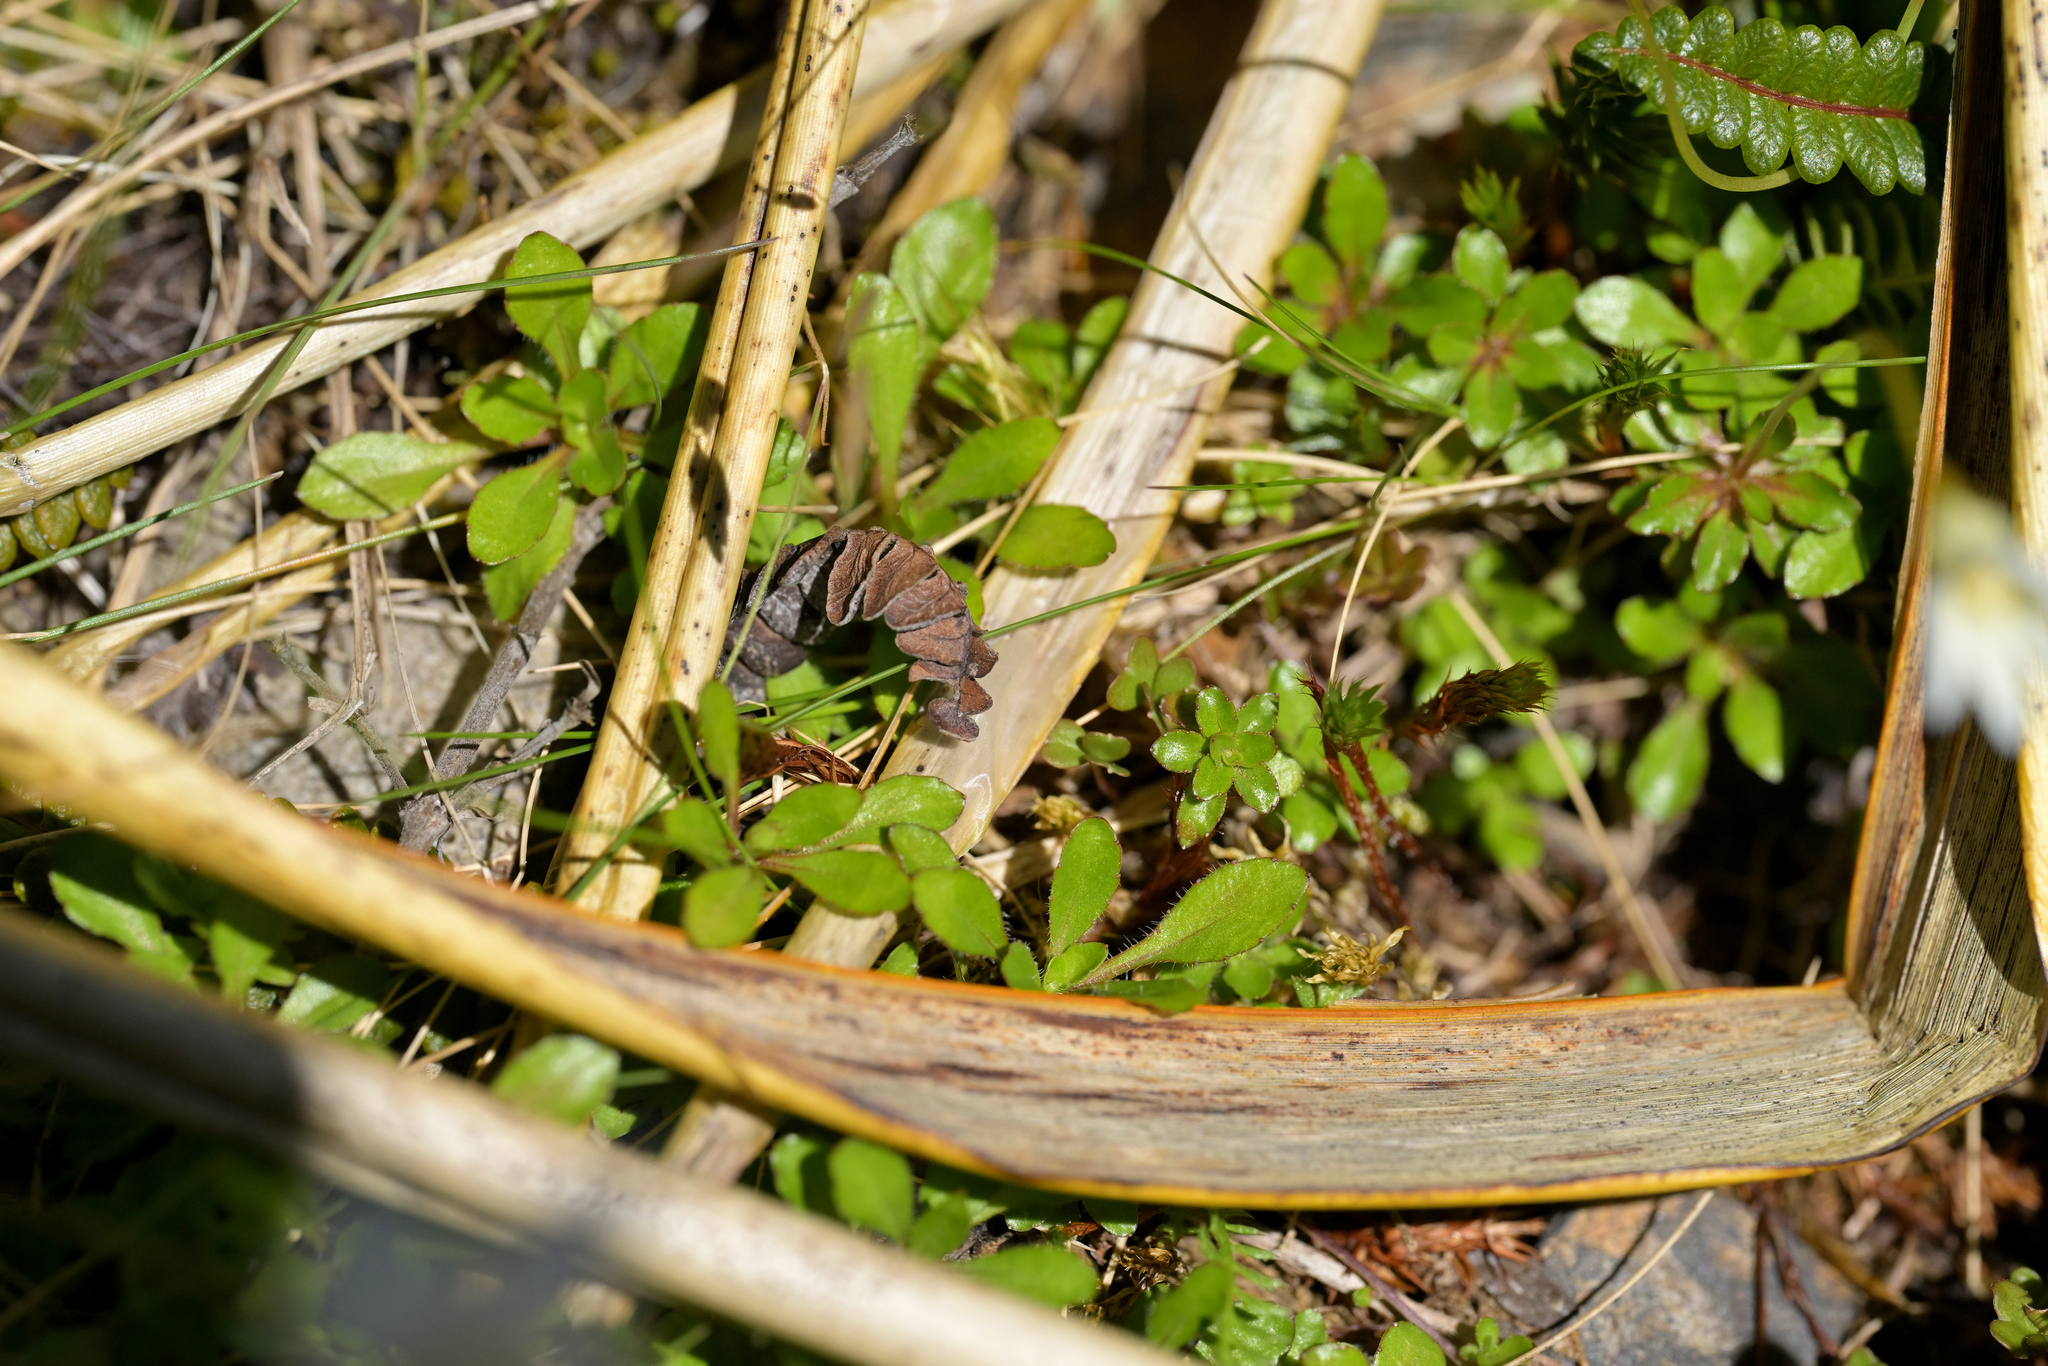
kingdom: Plantae
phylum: Tracheophyta
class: Magnoliopsida
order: Asterales
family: Campanulaceae
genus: Wahlenbergia
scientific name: Wahlenbergia albomarginata
